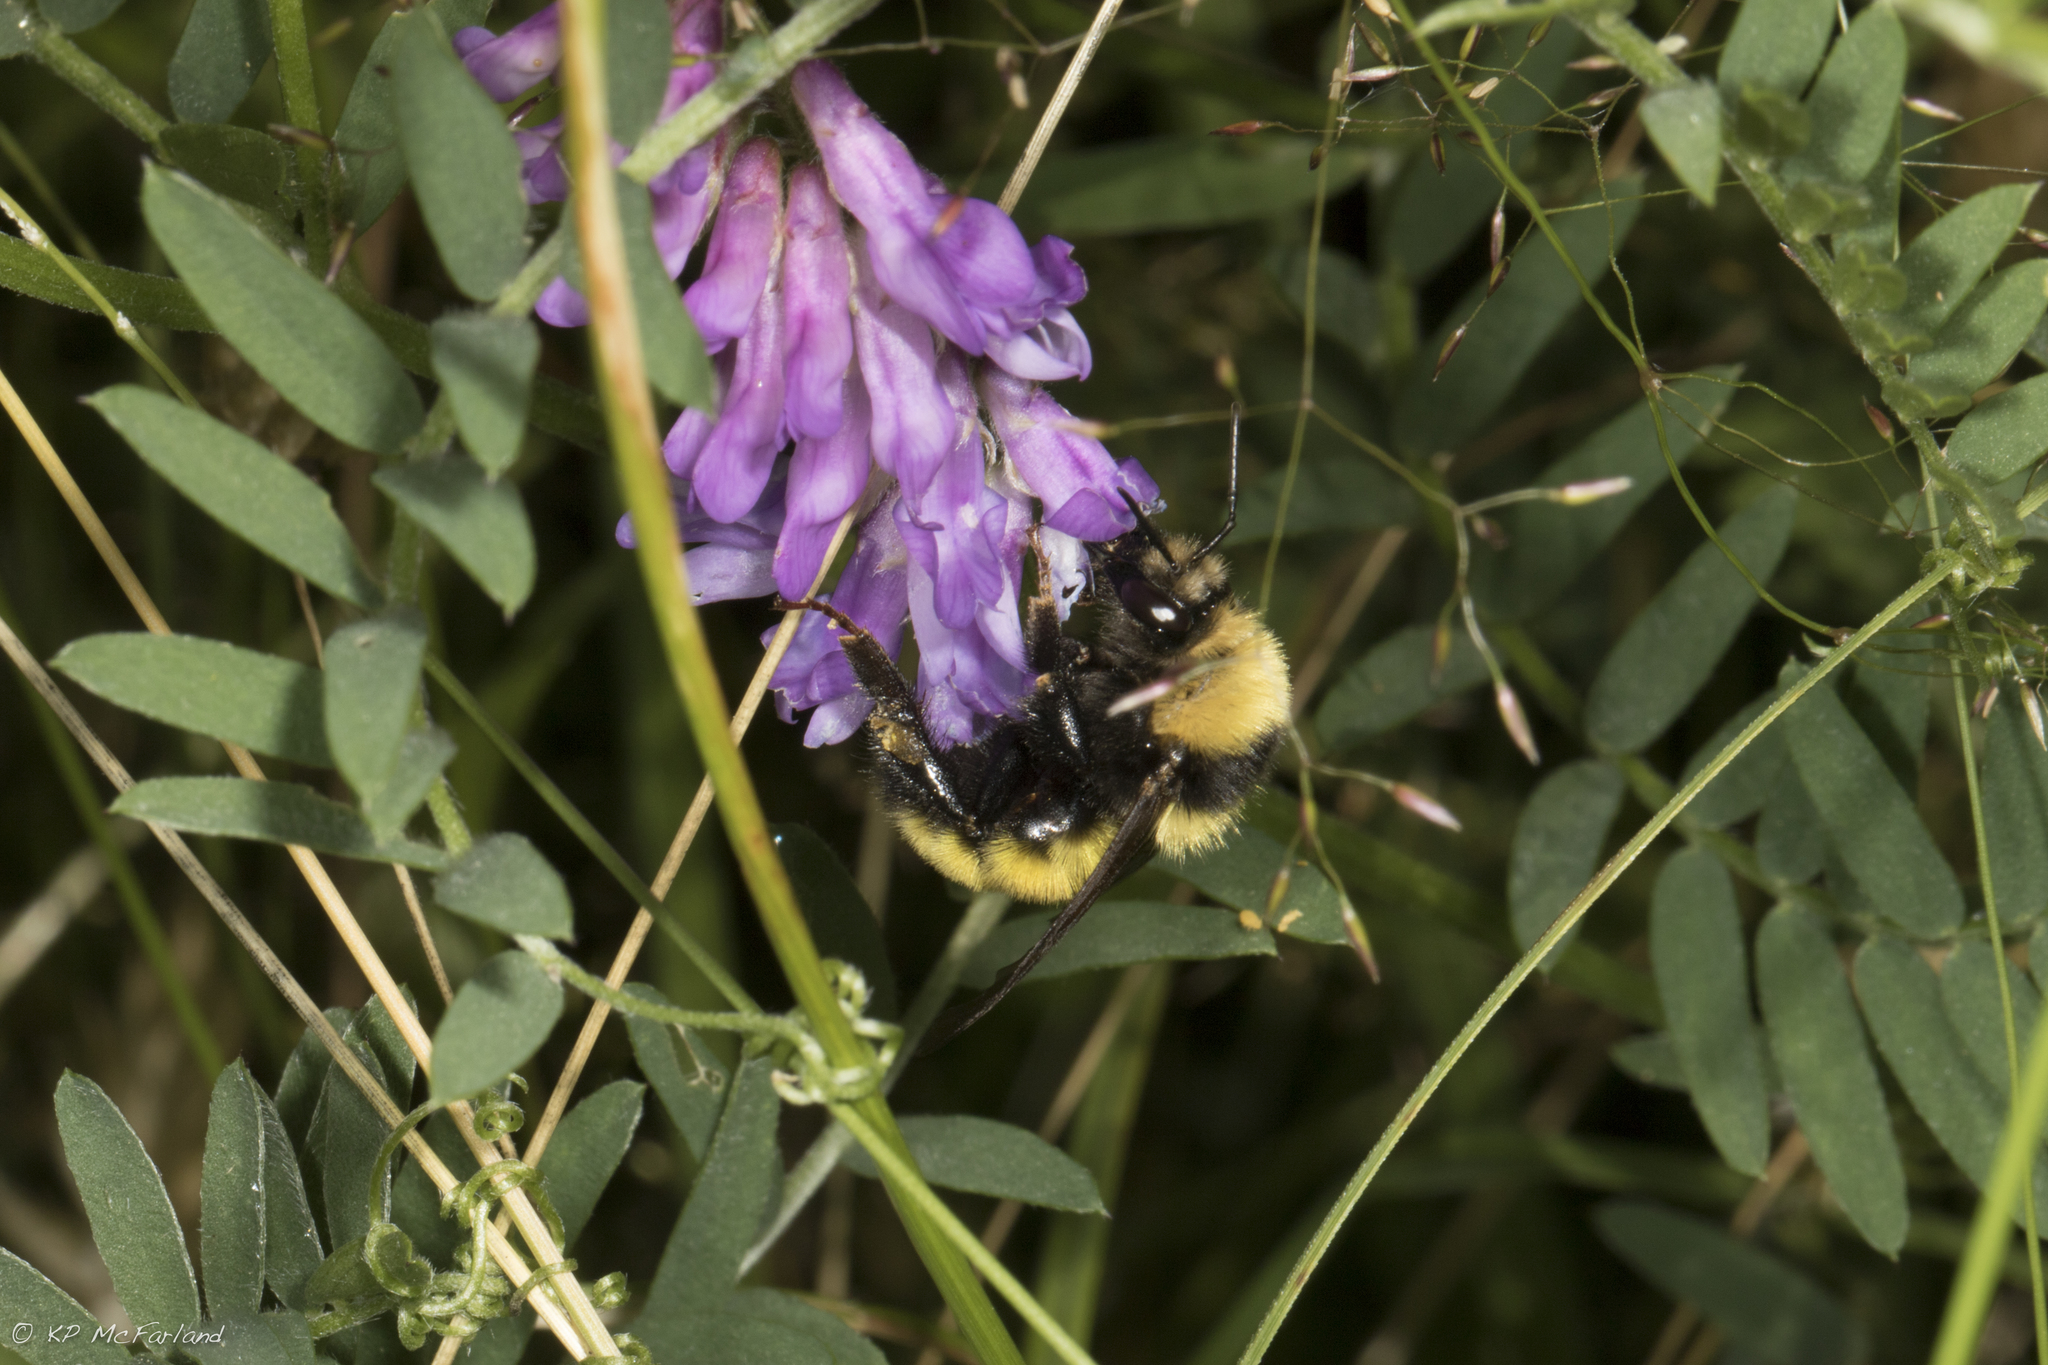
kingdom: Animalia
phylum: Arthropoda
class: Insecta
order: Hymenoptera
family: Apidae
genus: Bombus
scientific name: Bombus borealis
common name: Northern amber bumble bee
